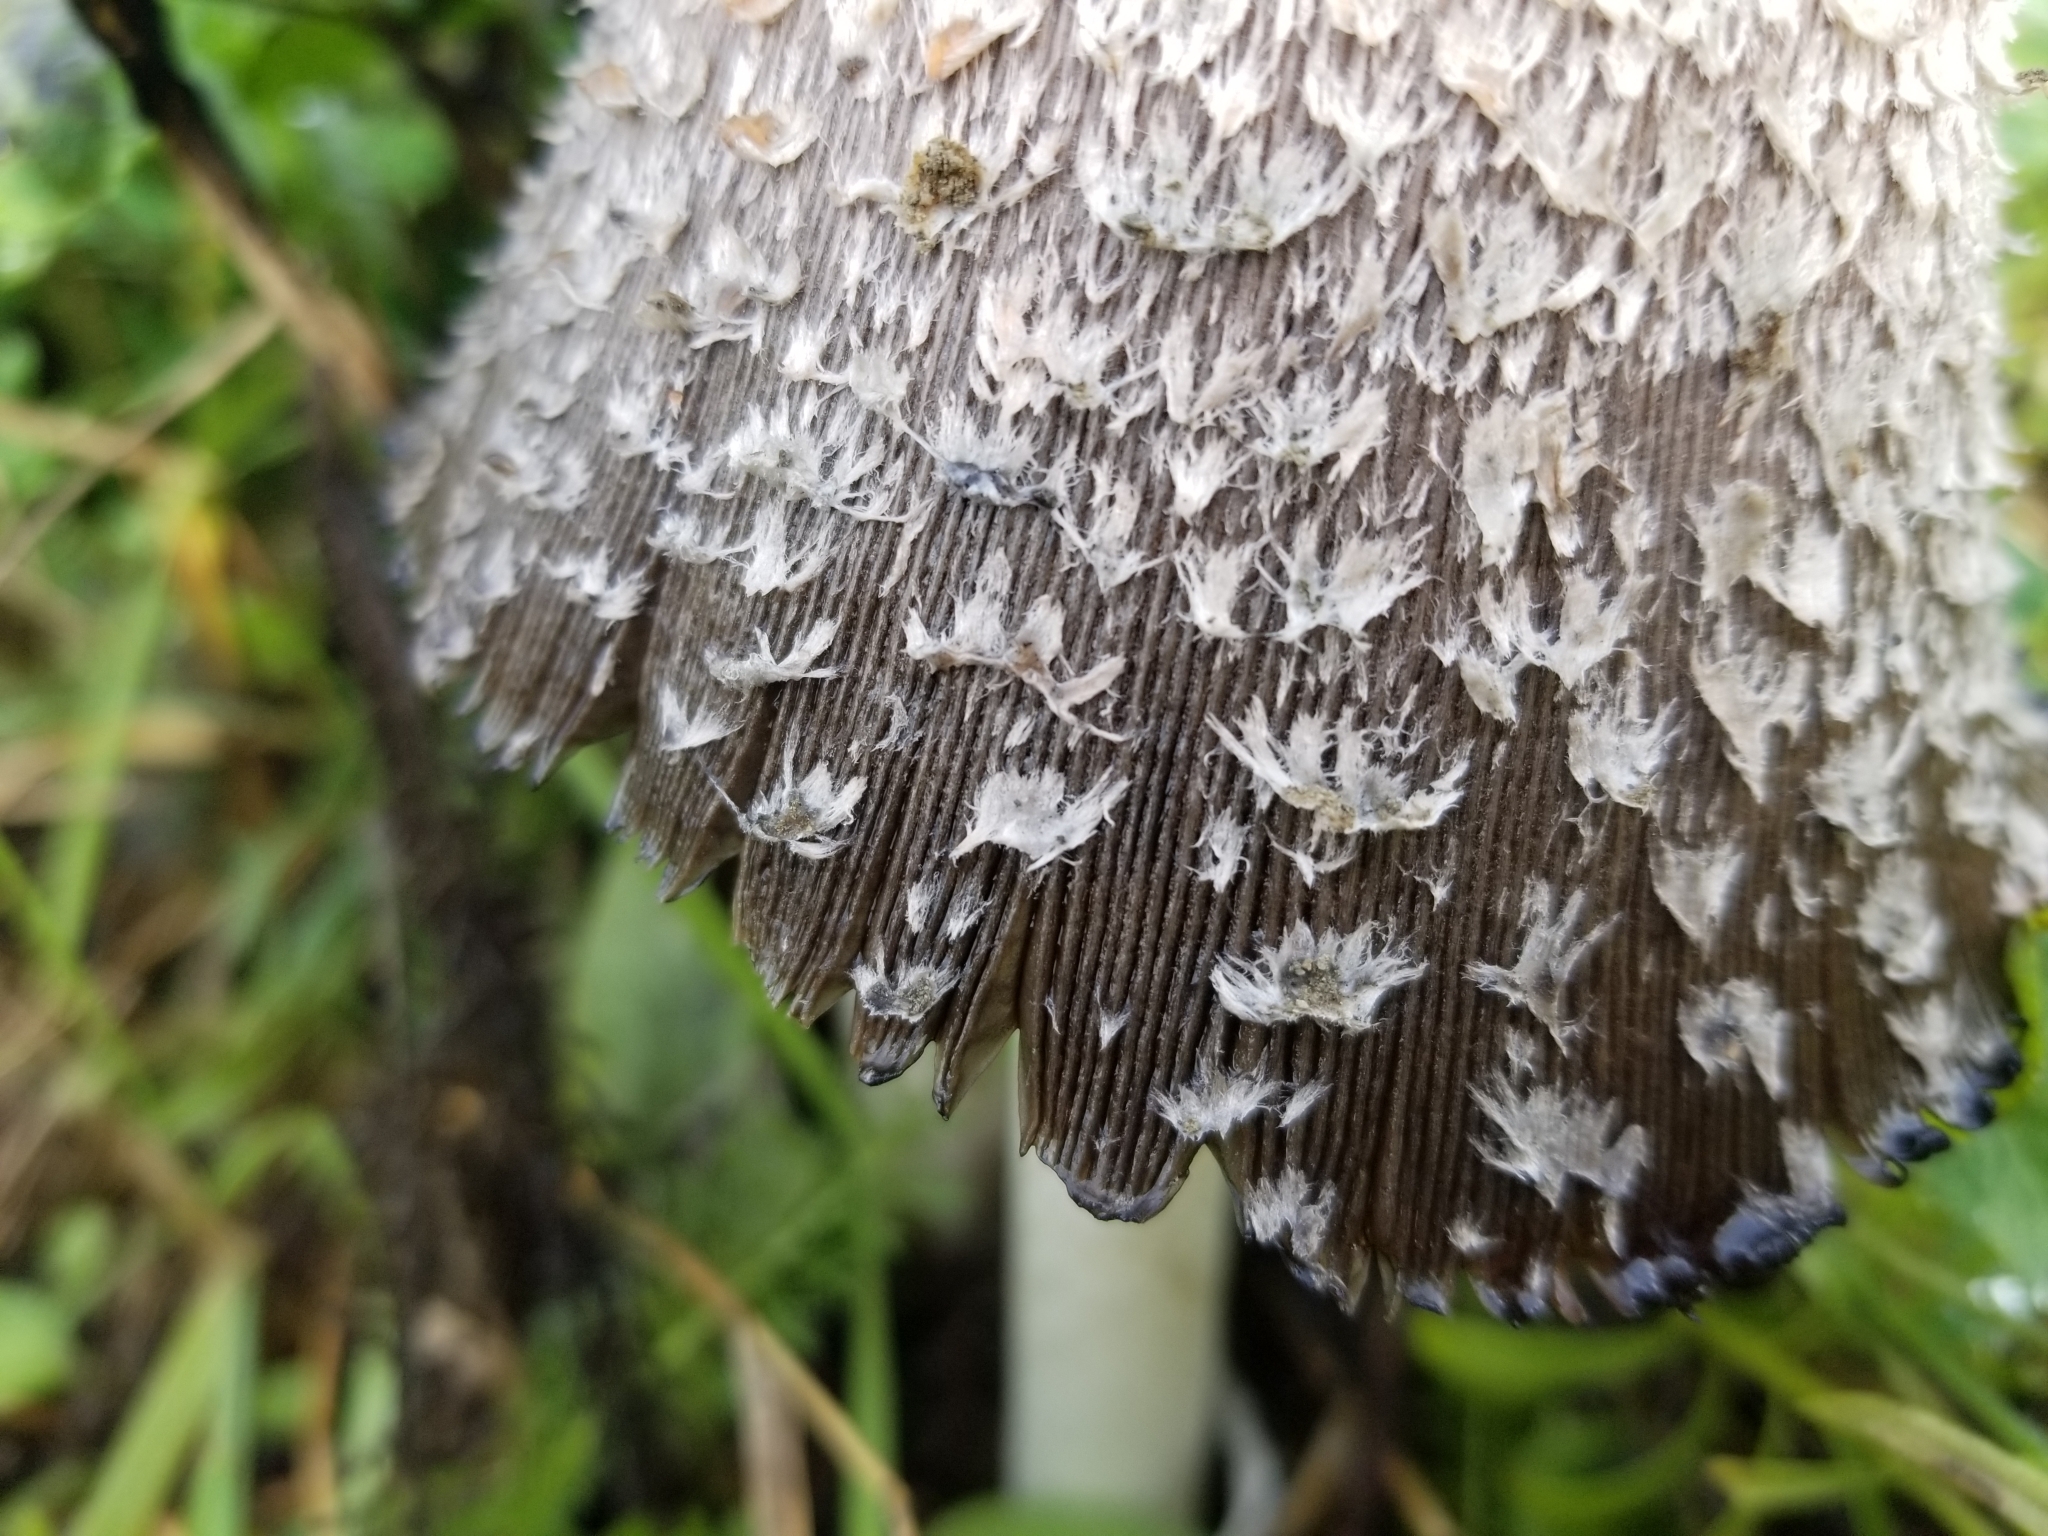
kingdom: Fungi
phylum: Basidiomycota
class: Agaricomycetes
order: Agaricales
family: Agaricaceae
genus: Coprinus
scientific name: Coprinus comatus
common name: Lawyer's wig
